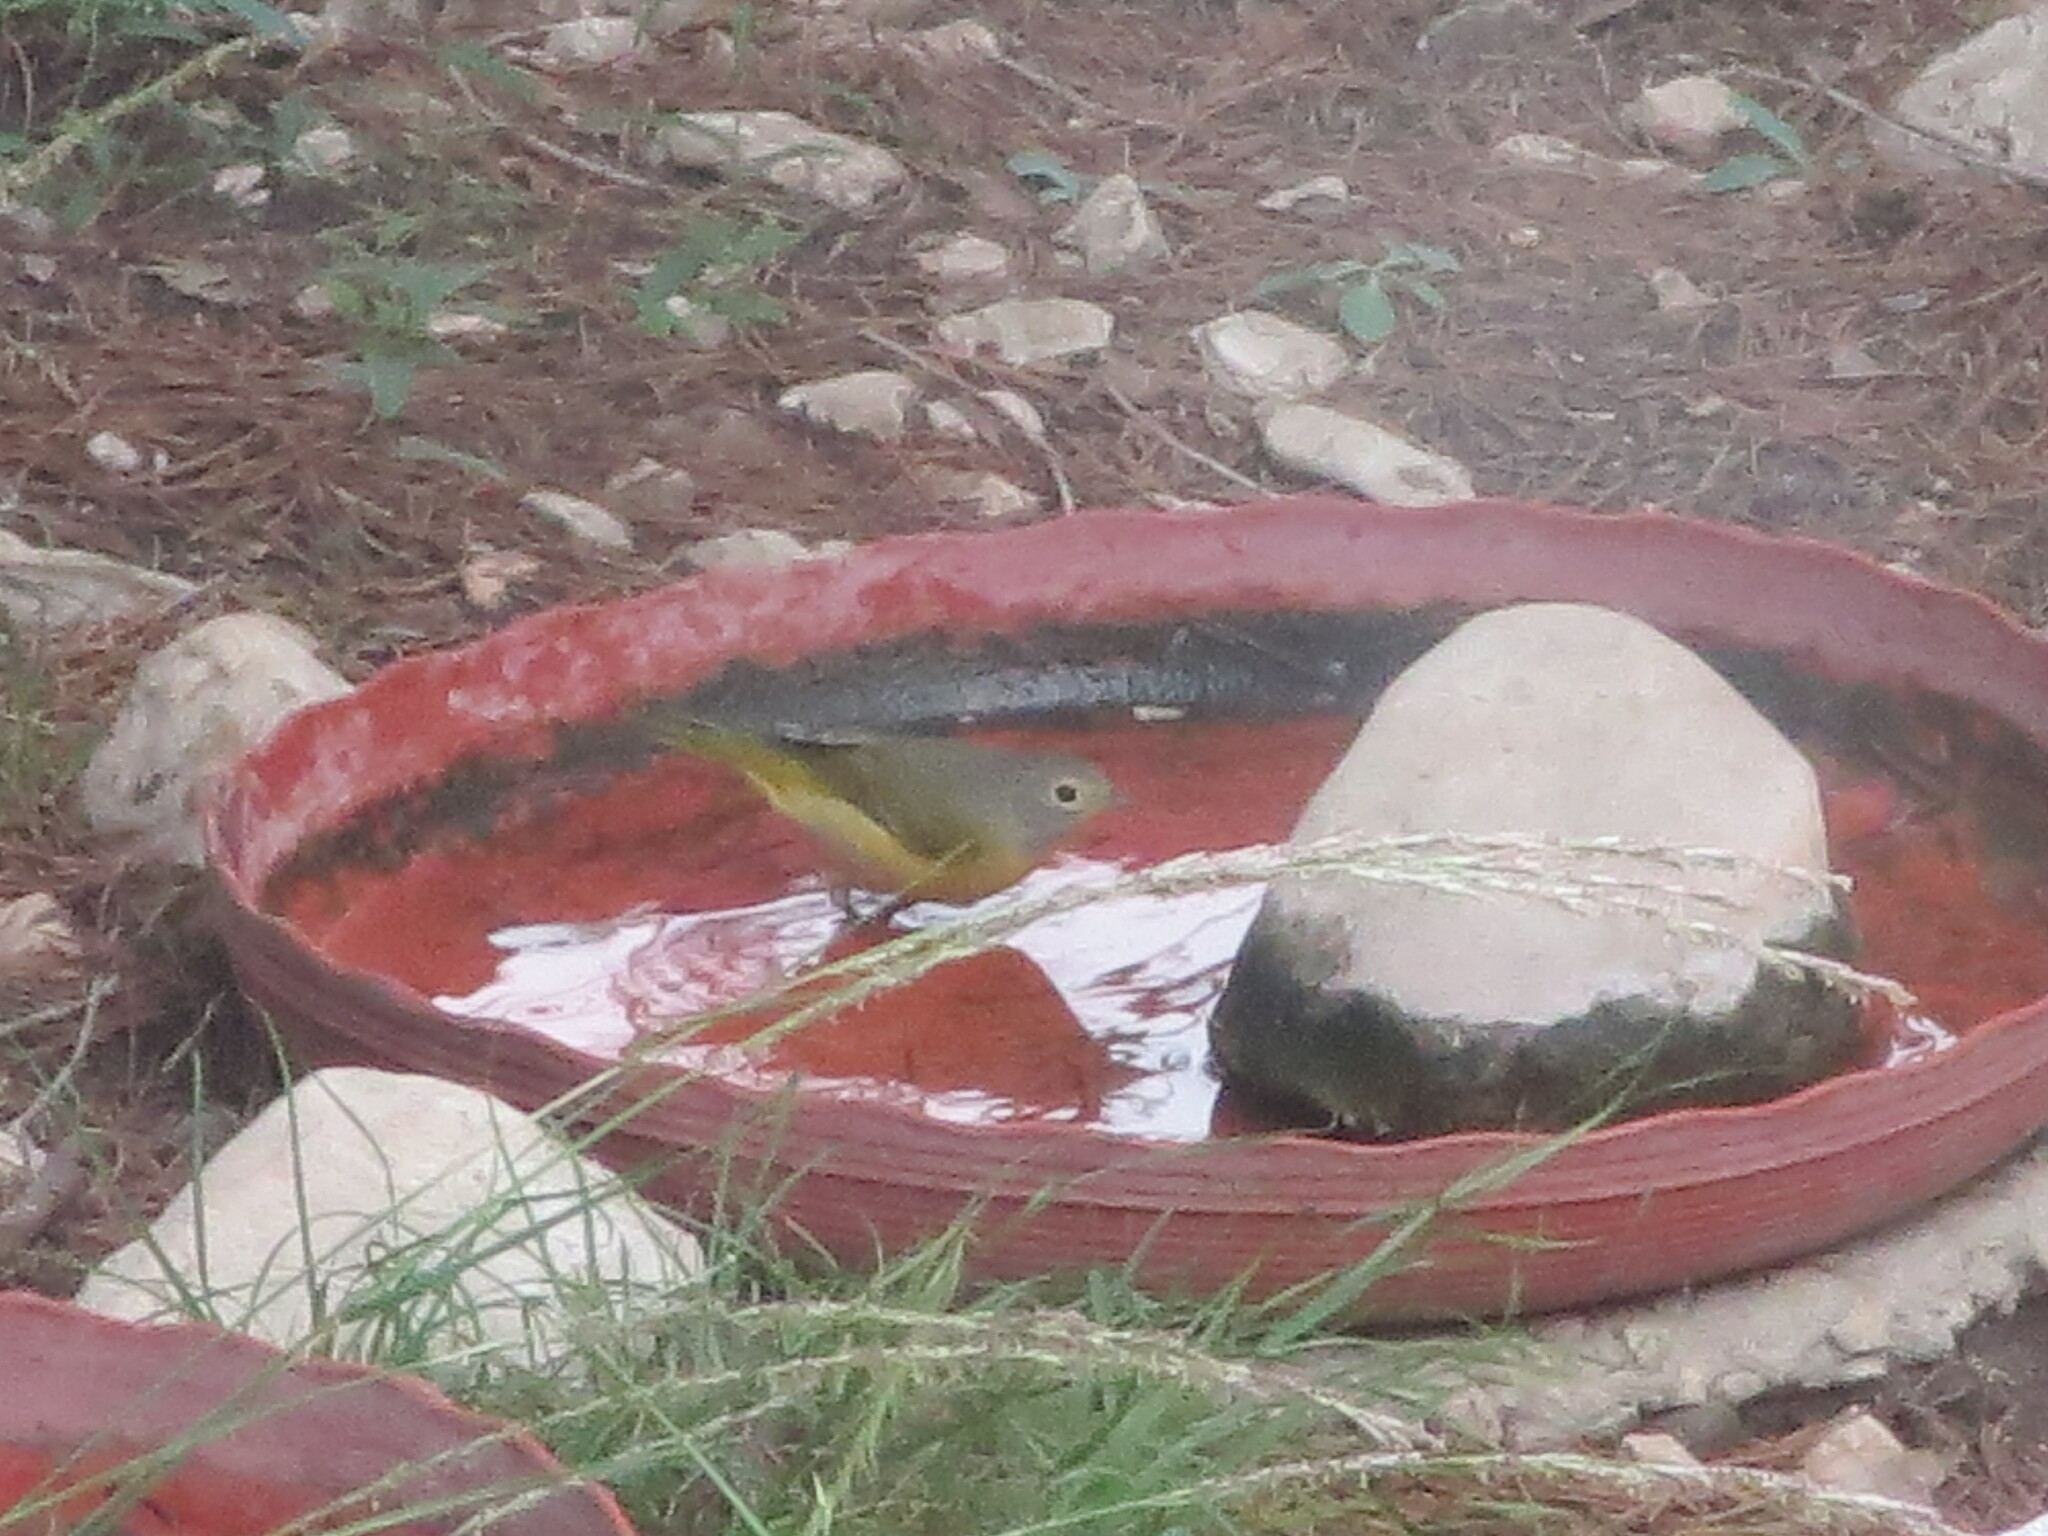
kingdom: Animalia
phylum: Chordata
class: Aves
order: Passeriformes
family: Parulidae
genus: Leiothlypis
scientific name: Leiothlypis ruficapilla
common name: Nashville warbler
